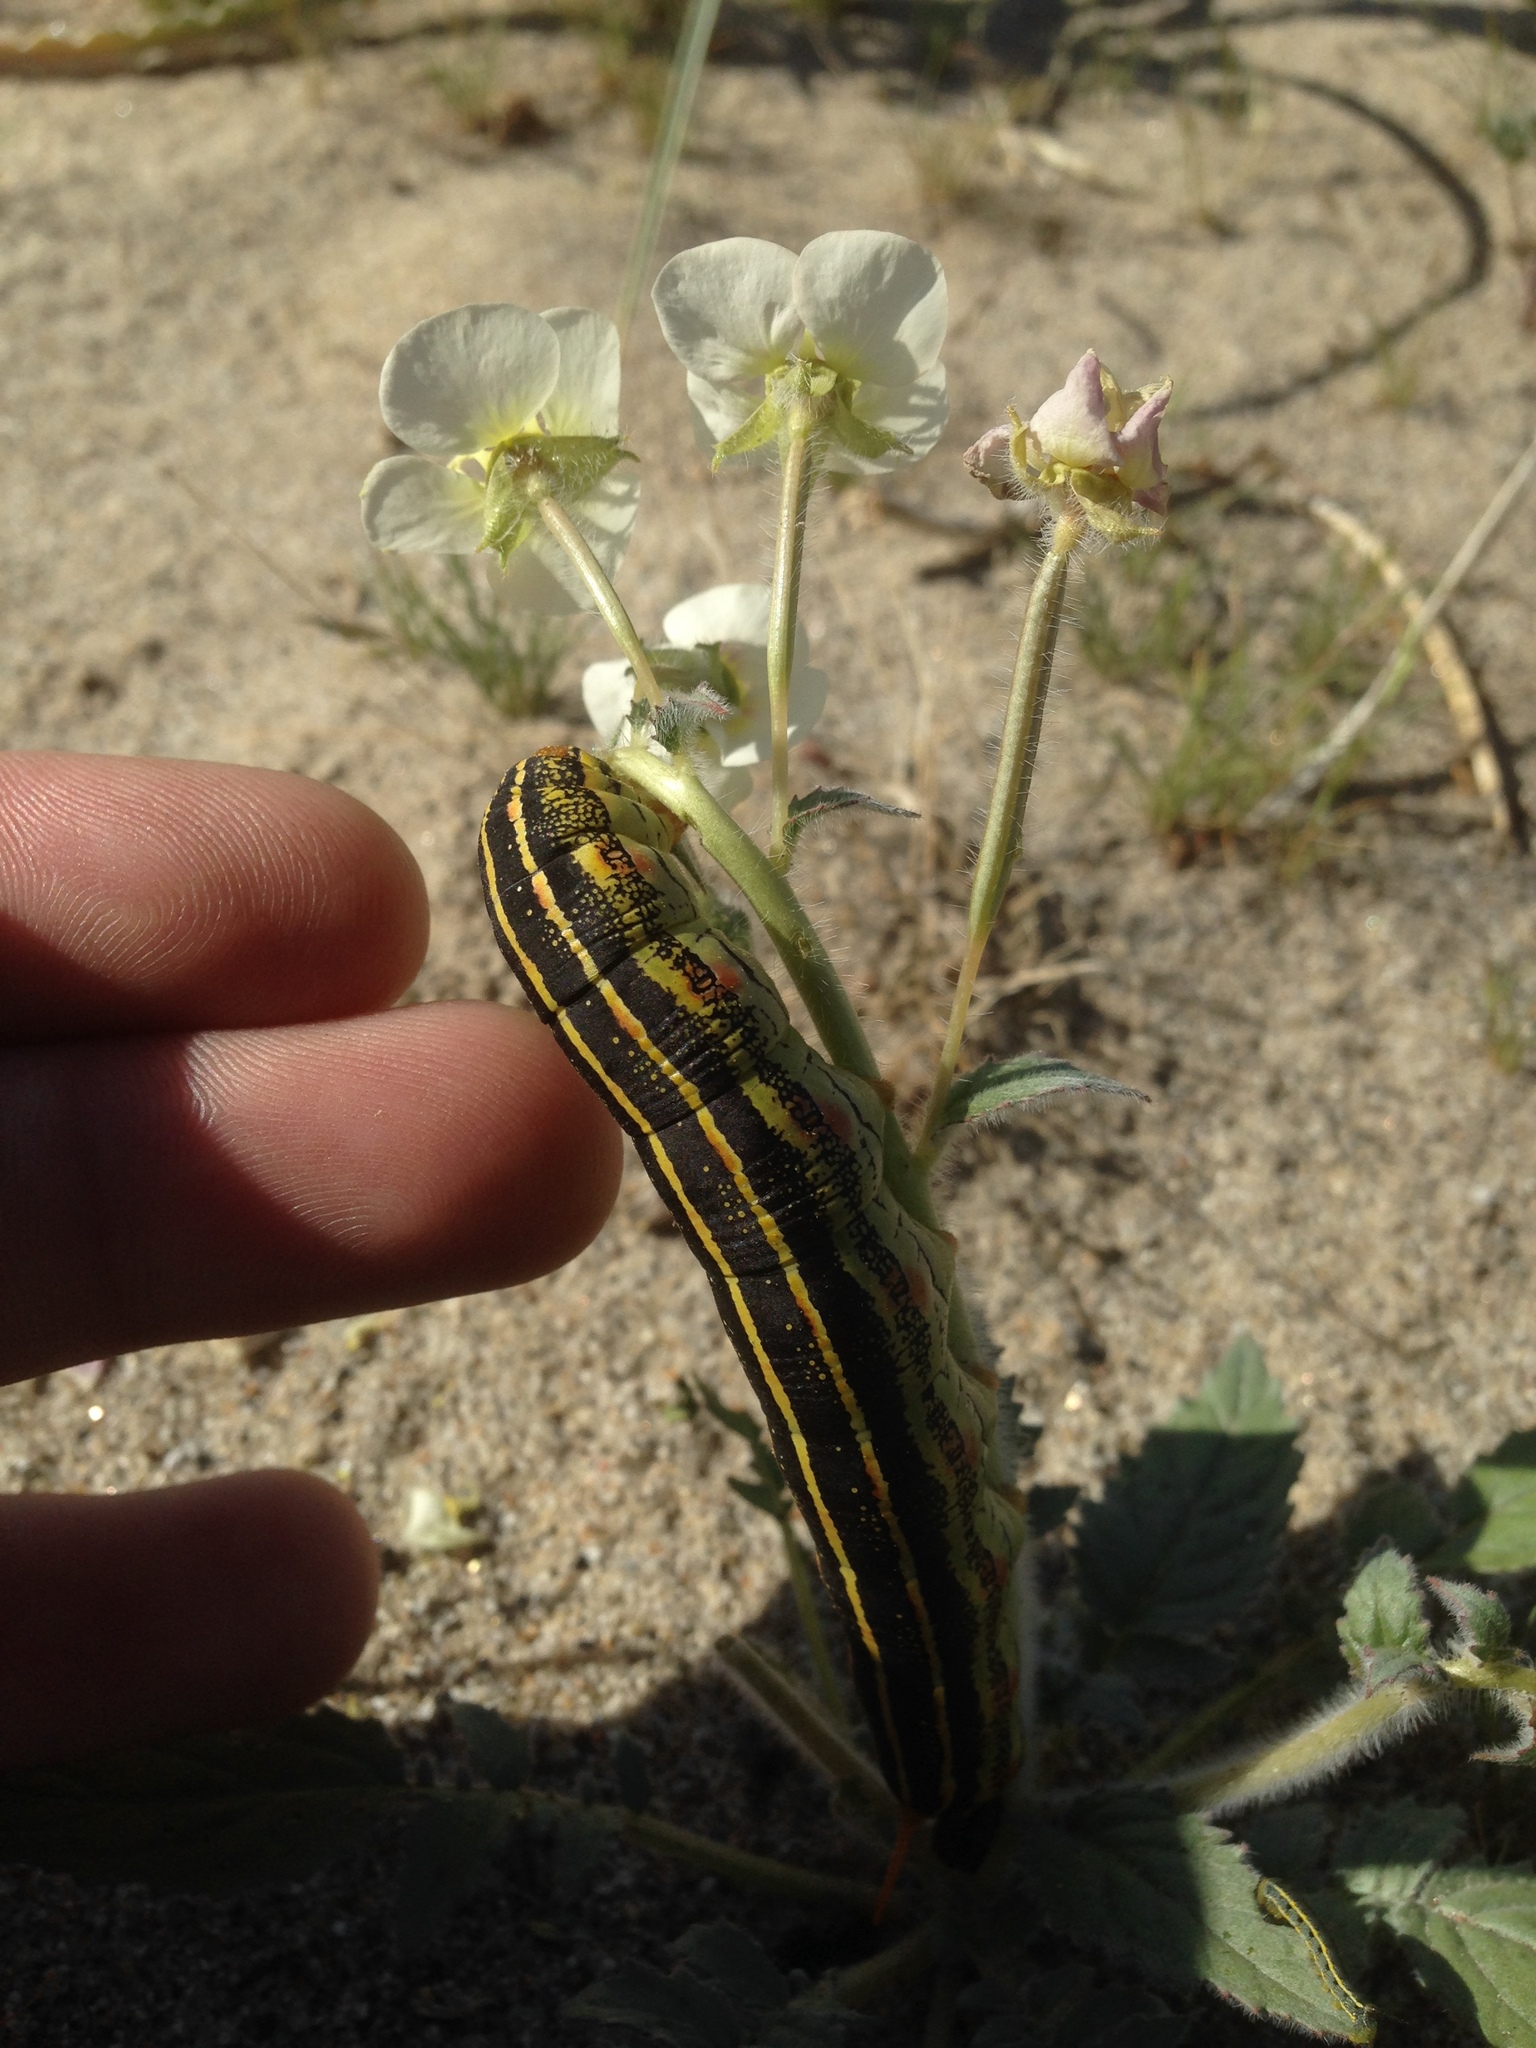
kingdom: Animalia
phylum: Arthropoda
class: Insecta
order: Lepidoptera
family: Sphingidae
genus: Hyles
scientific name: Hyles lineata
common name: White-lined sphinx
